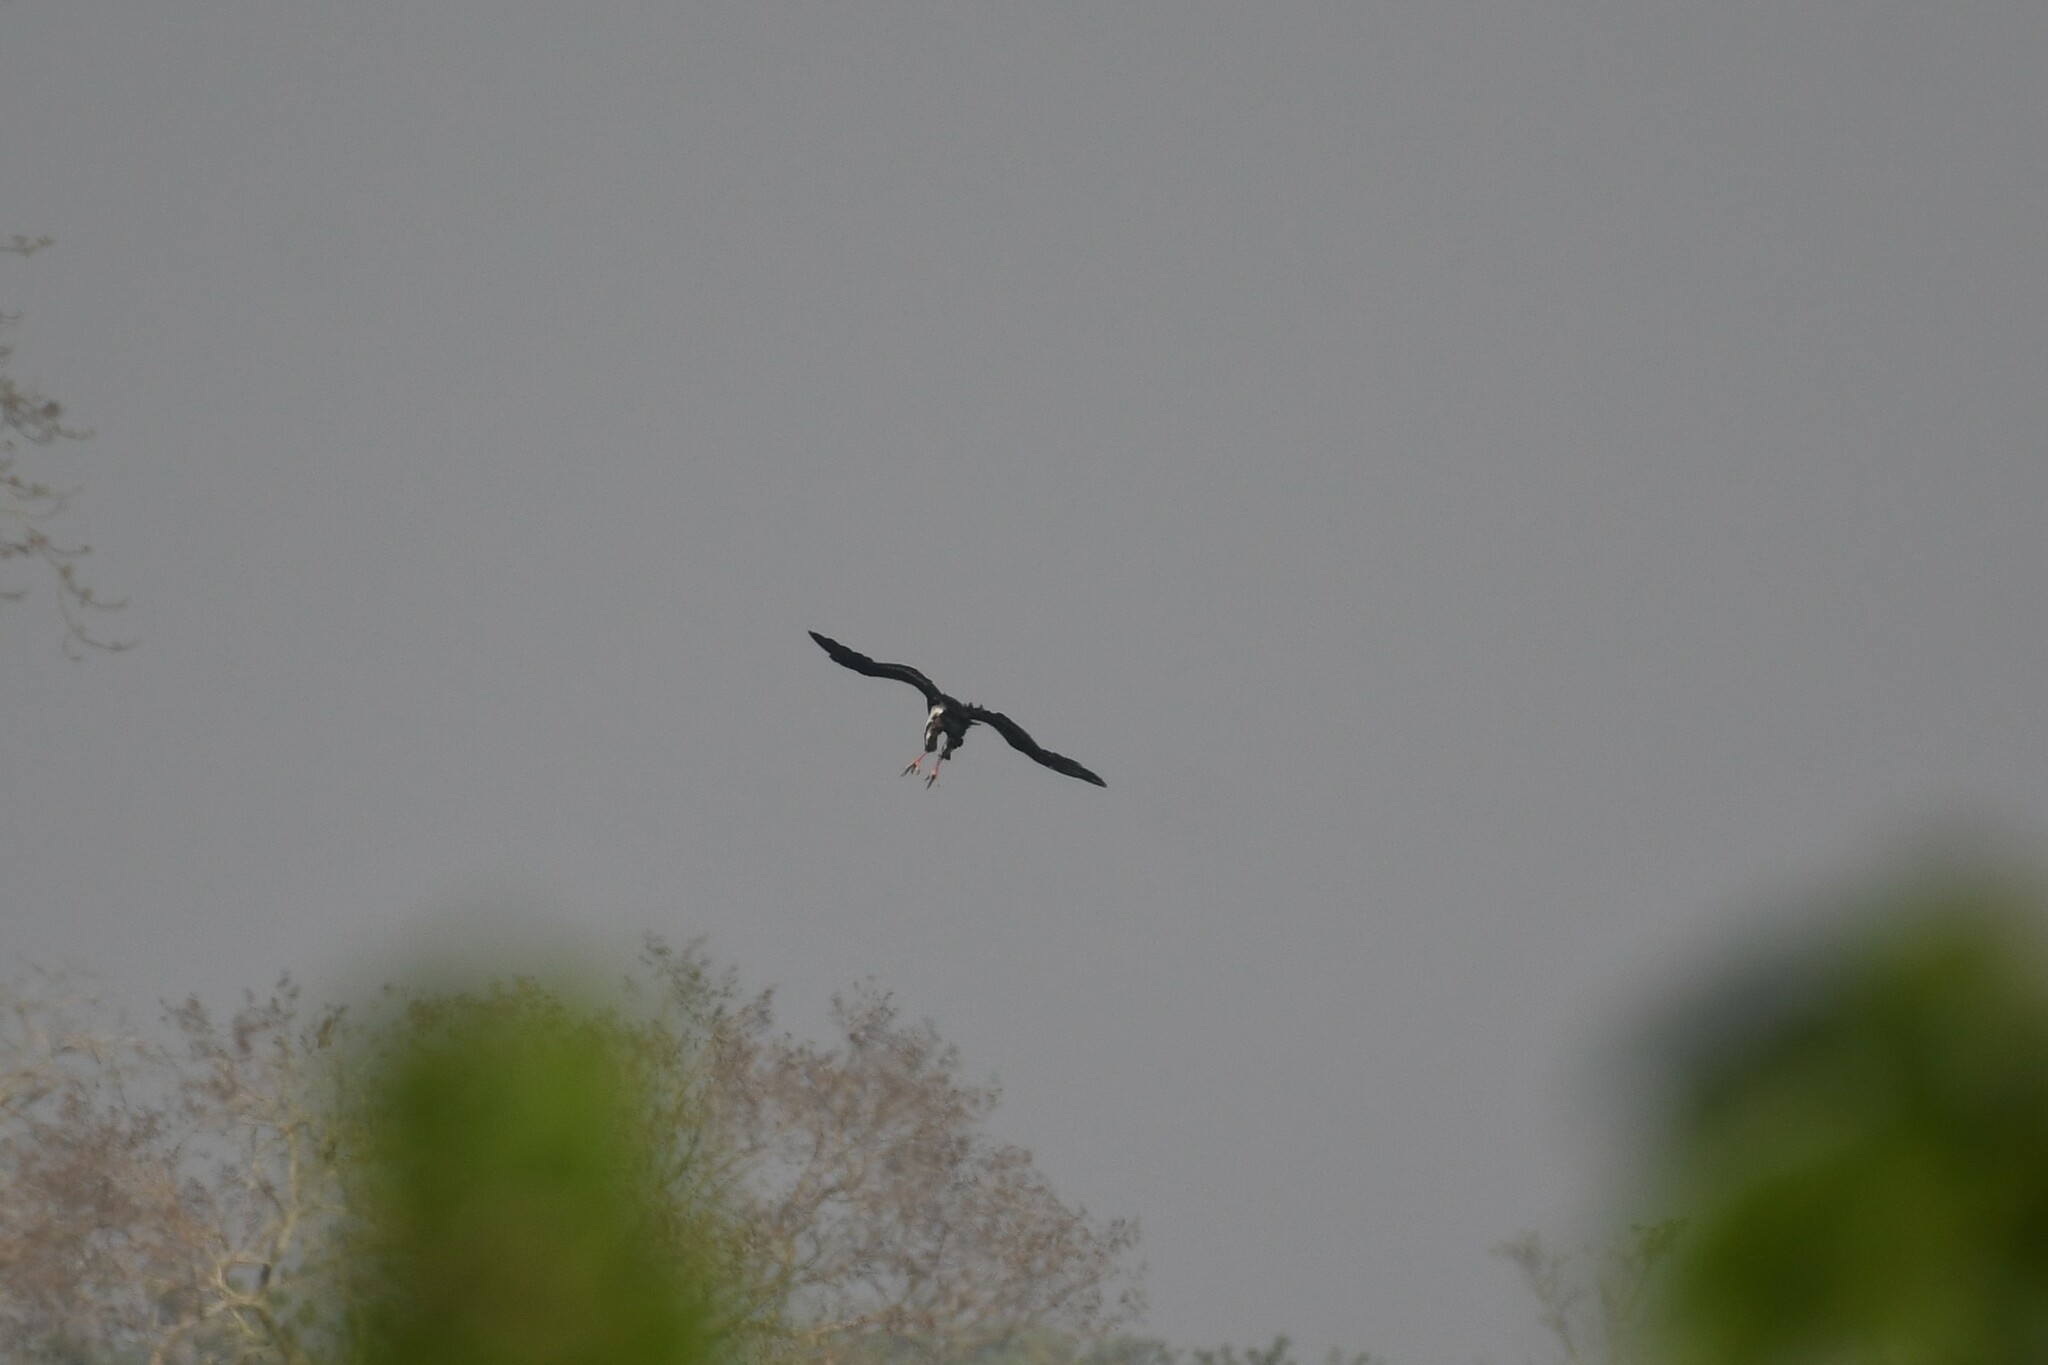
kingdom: Animalia
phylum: Chordata
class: Aves
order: Accipitriformes
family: Accipitridae
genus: Sarcogyps
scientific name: Sarcogyps calvus
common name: Red-headed vulture
